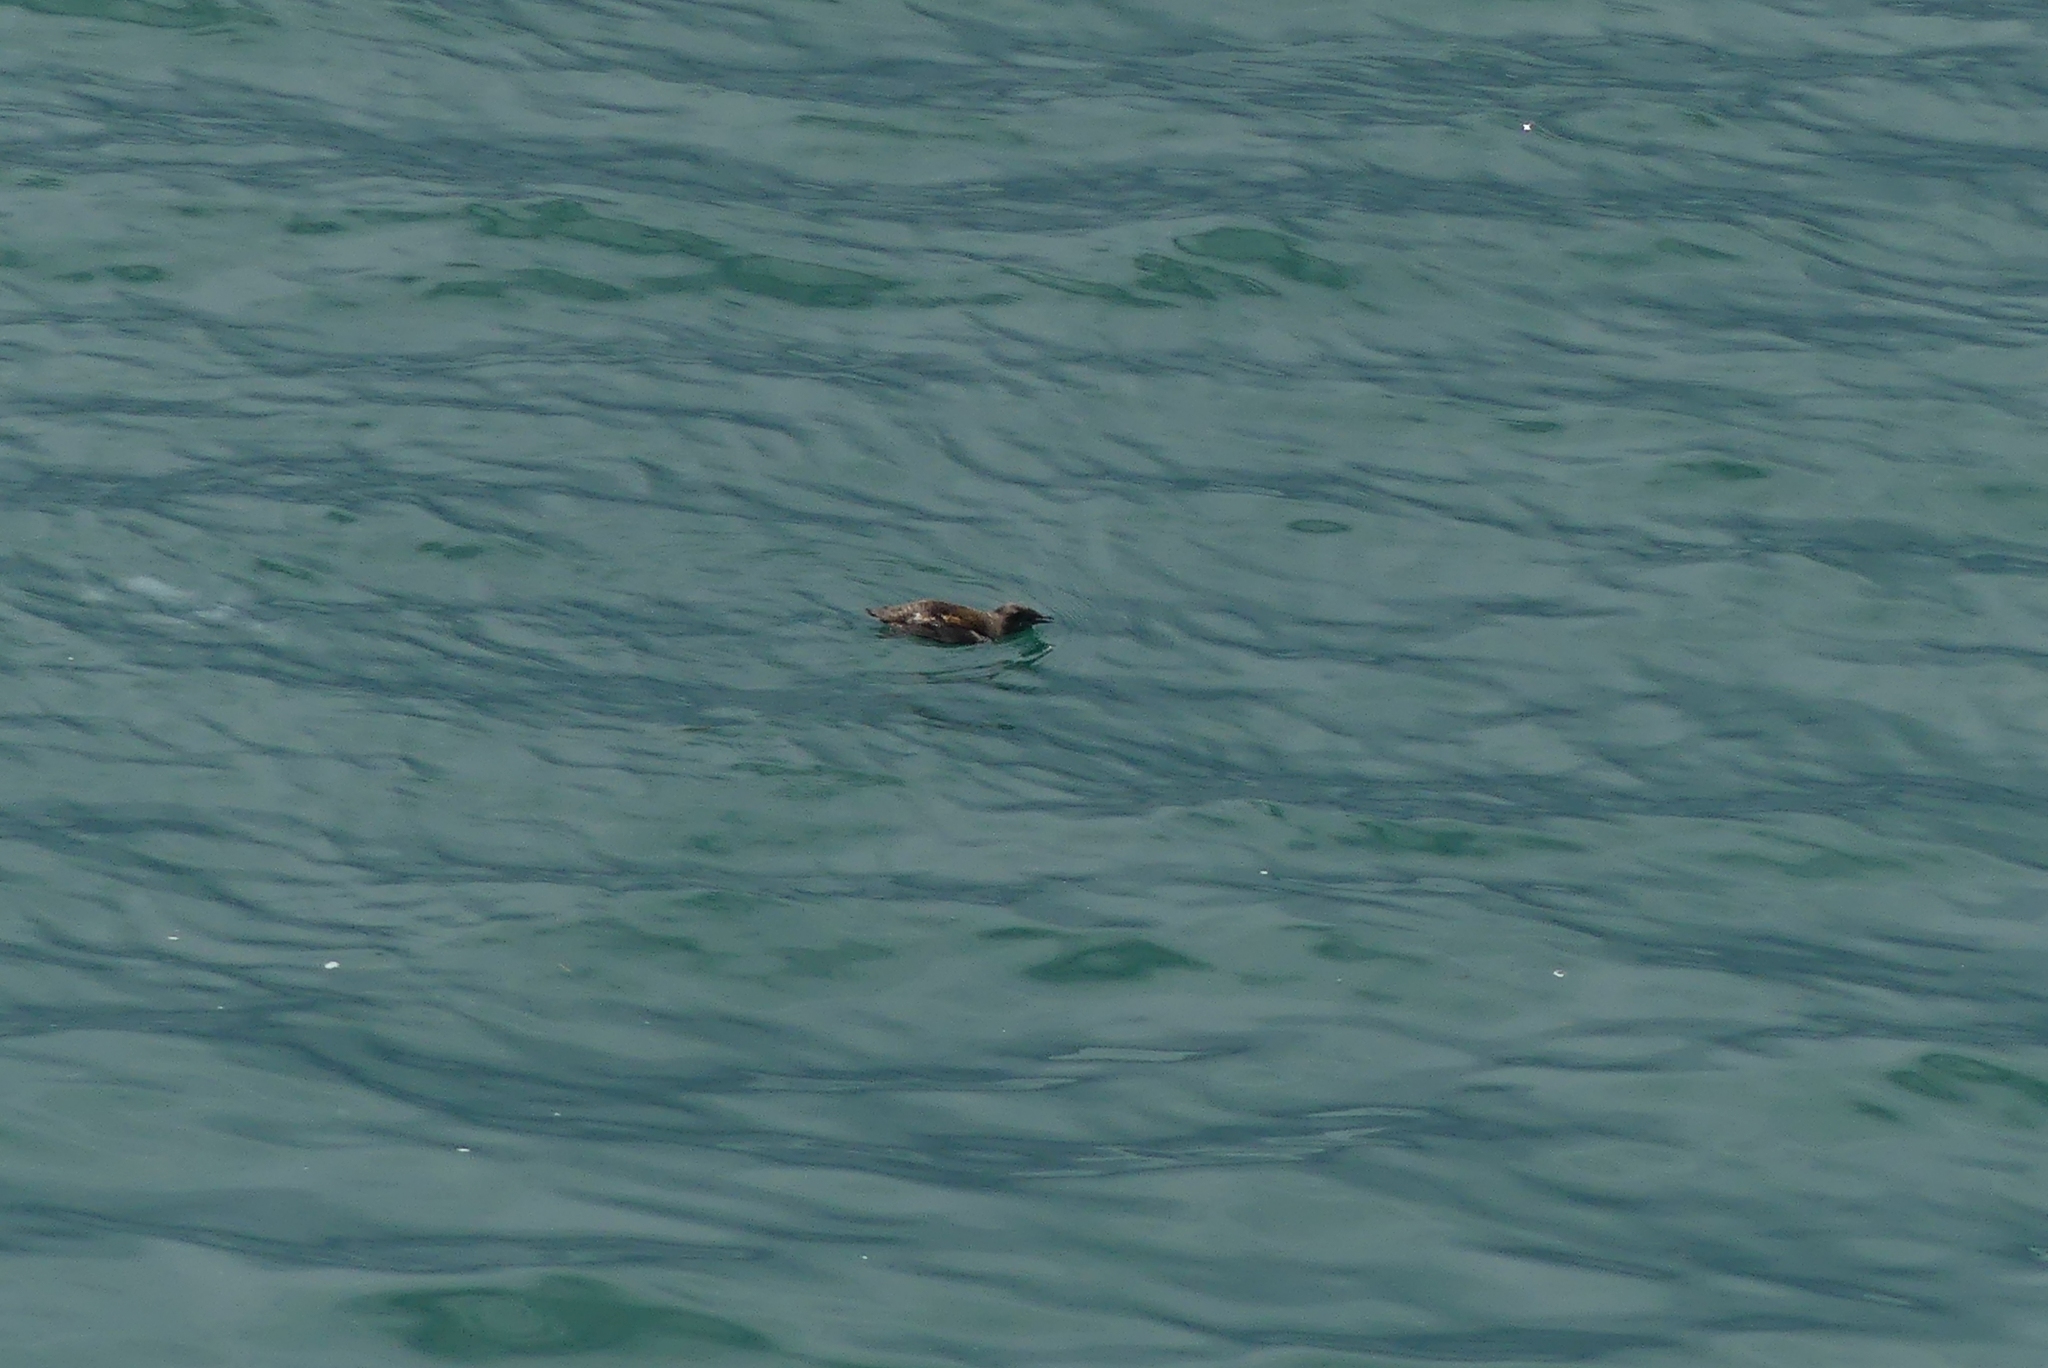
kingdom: Animalia
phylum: Chordata
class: Aves
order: Charadriiformes
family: Alcidae
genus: Brachyramphus
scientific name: Brachyramphus marmoratus
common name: Marbled murrelet
